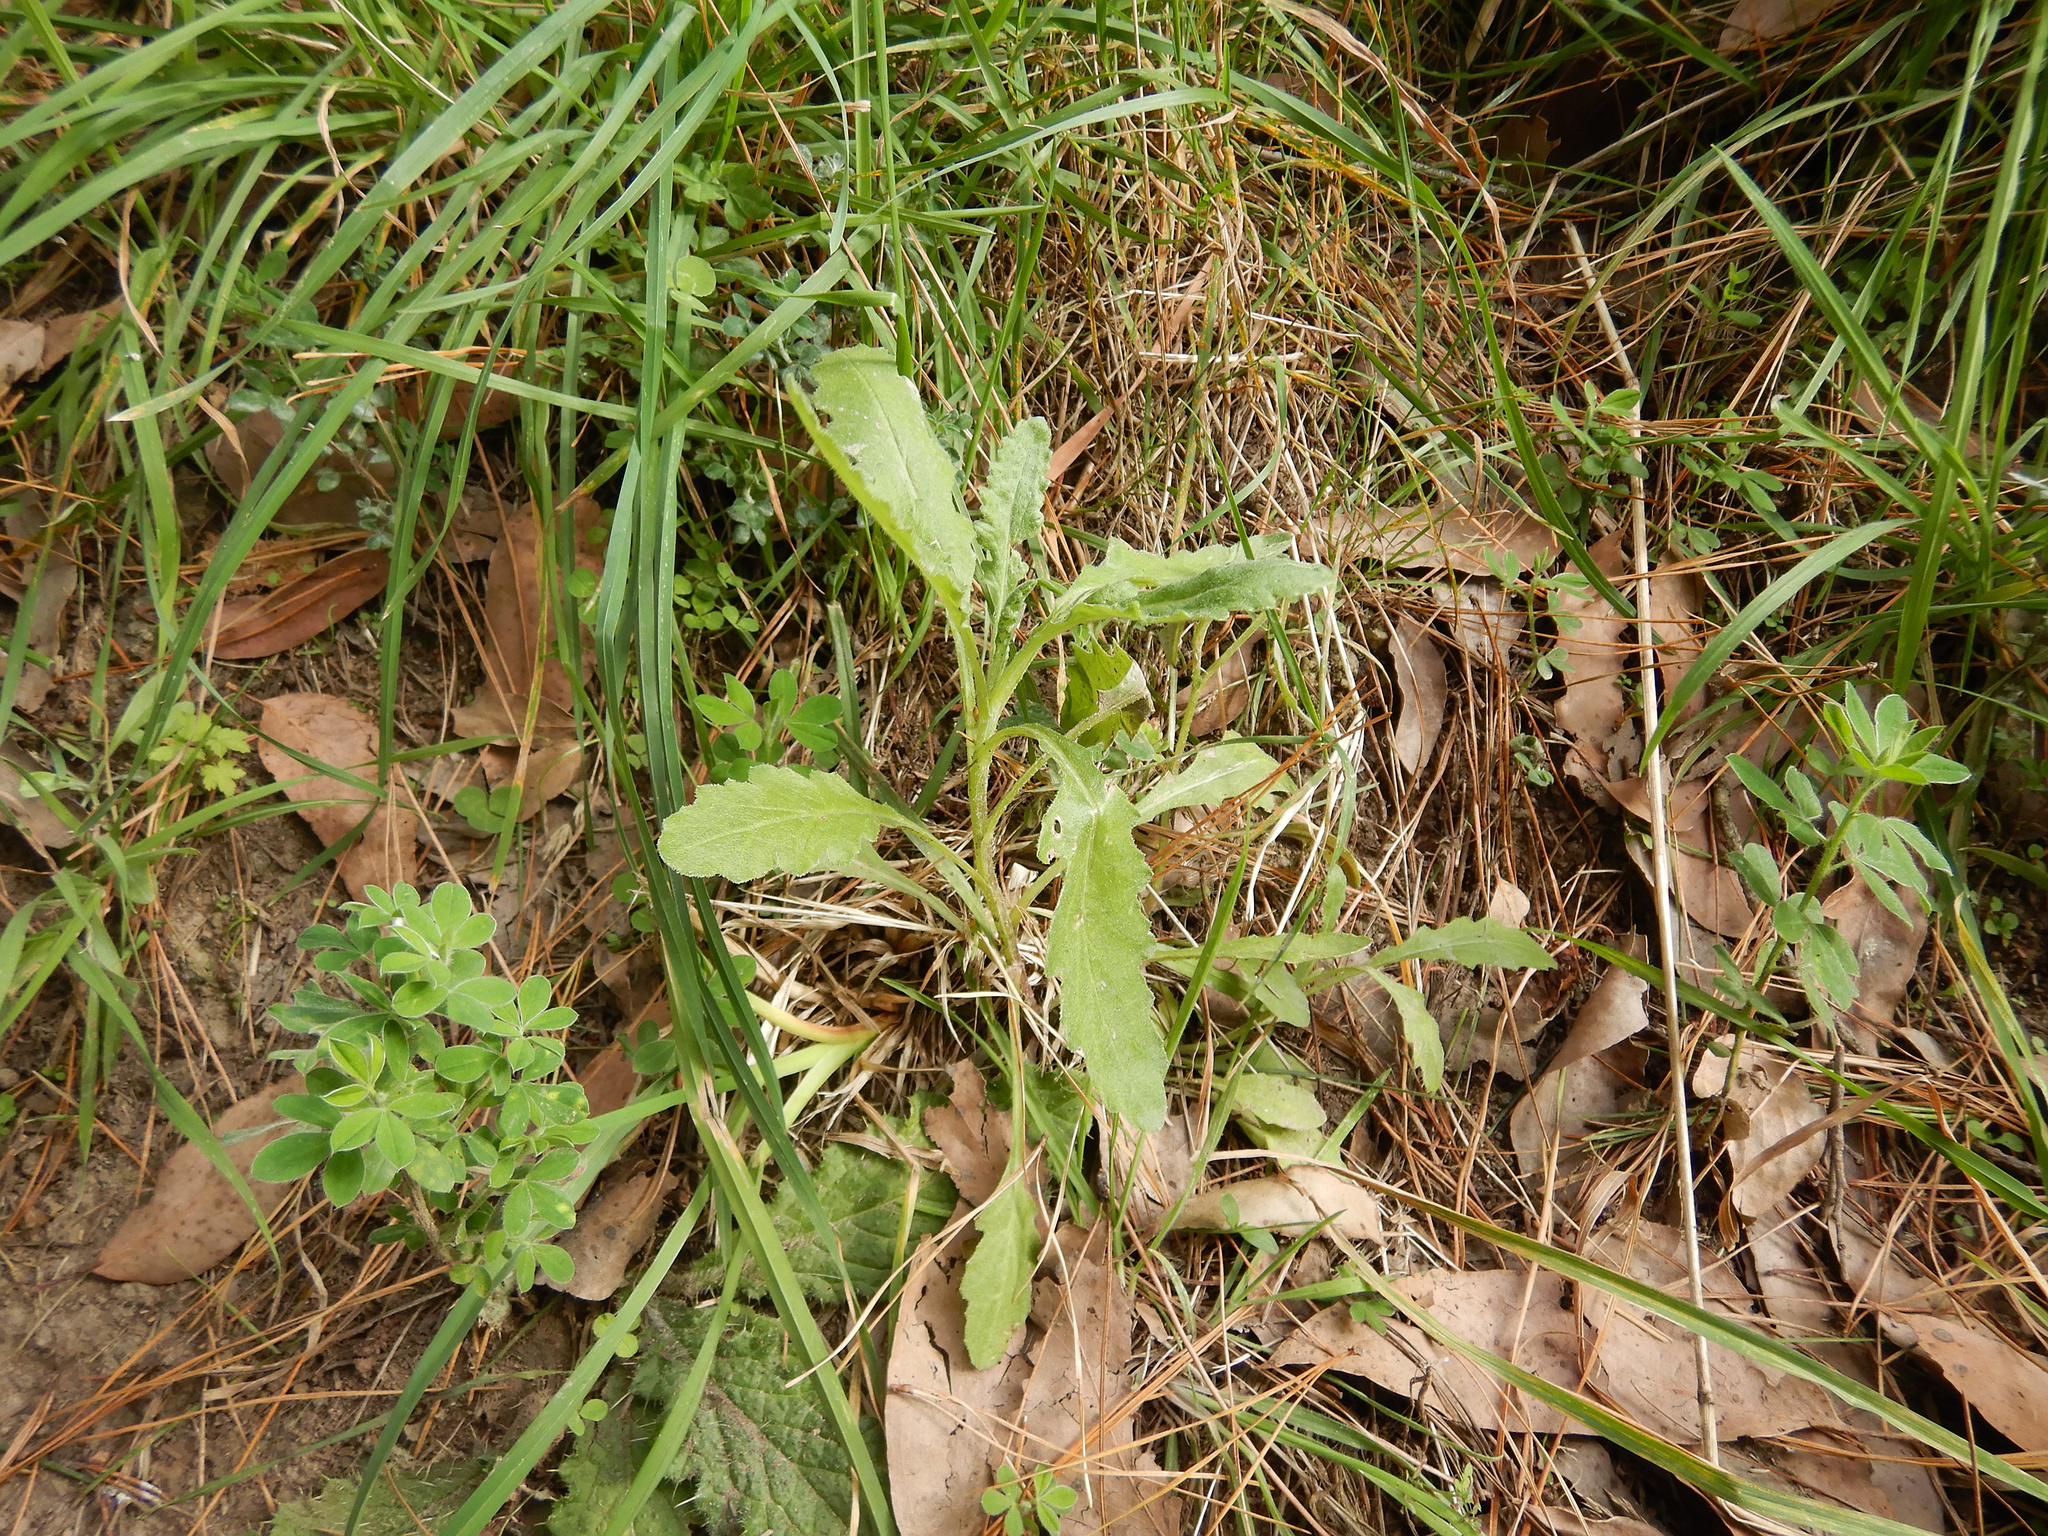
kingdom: Plantae
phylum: Tracheophyta
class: Magnoliopsida
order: Asterales
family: Asteraceae
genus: Senecio
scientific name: Senecio glomeratus
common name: Cutleaf burnweed
